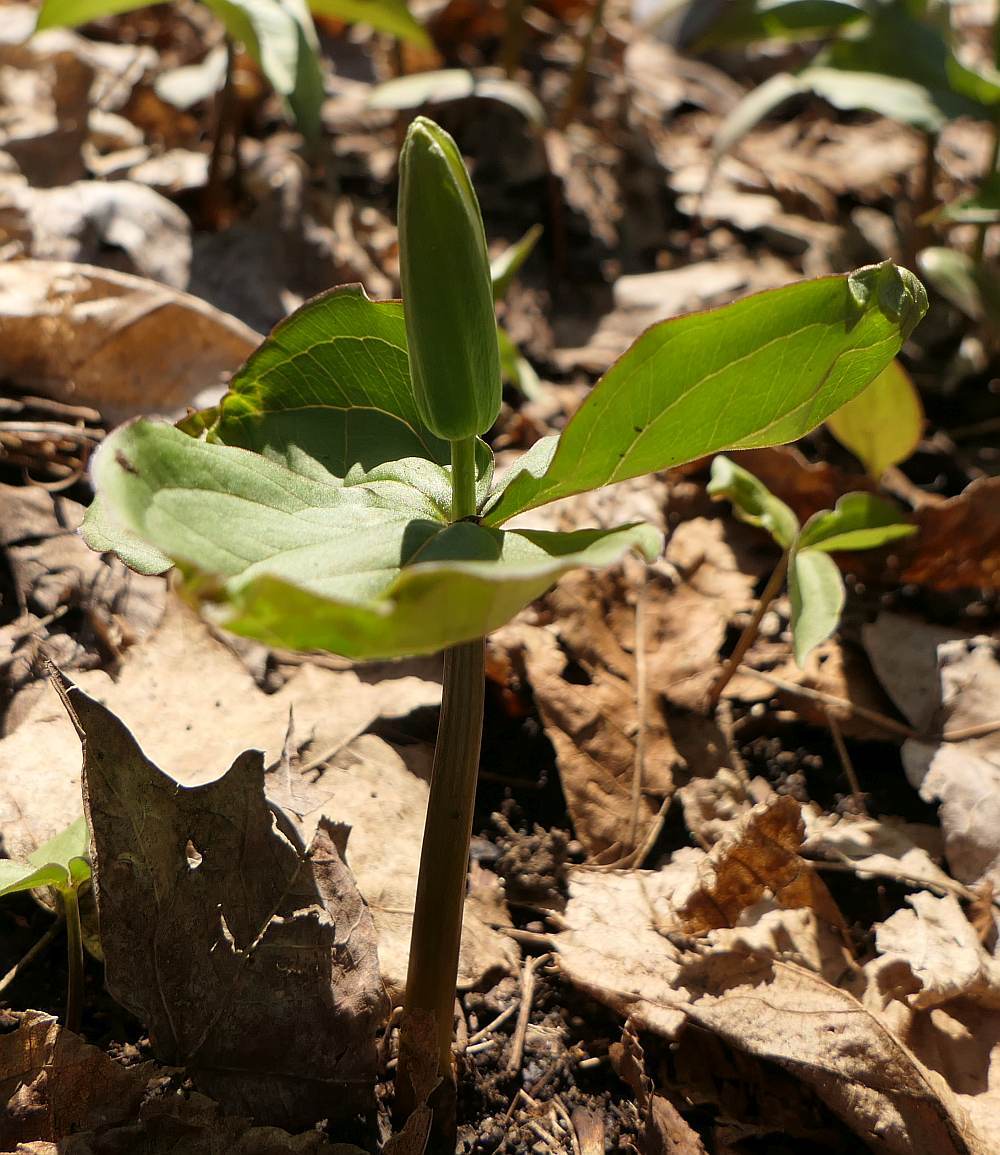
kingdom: Plantae
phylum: Tracheophyta
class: Liliopsida
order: Liliales
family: Melanthiaceae
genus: Trillium
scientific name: Trillium grandiflorum
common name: Great white trillium
